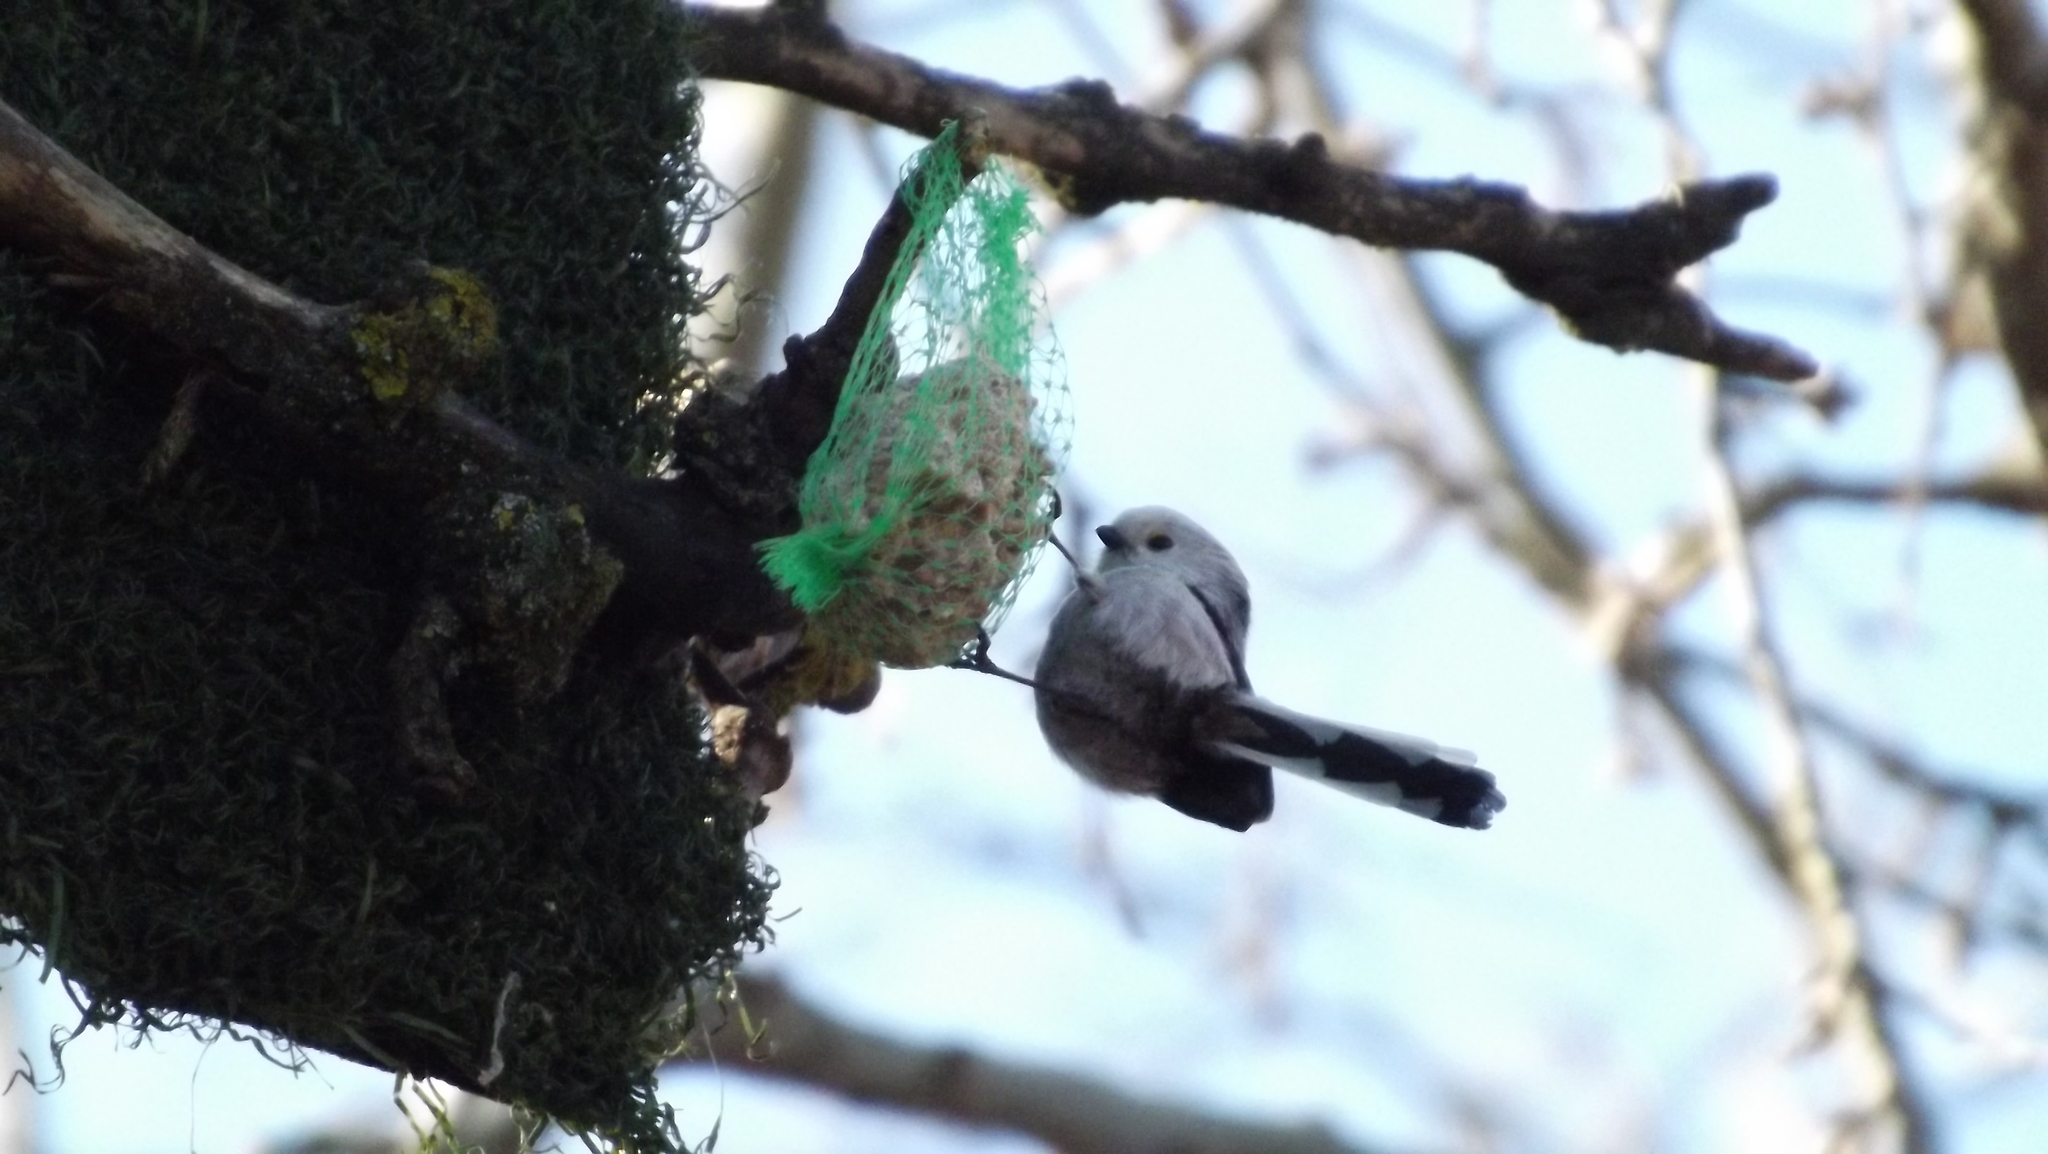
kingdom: Animalia
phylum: Chordata
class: Aves
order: Passeriformes
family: Aegithalidae
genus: Aegithalos
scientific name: Aegithalos caudatus
